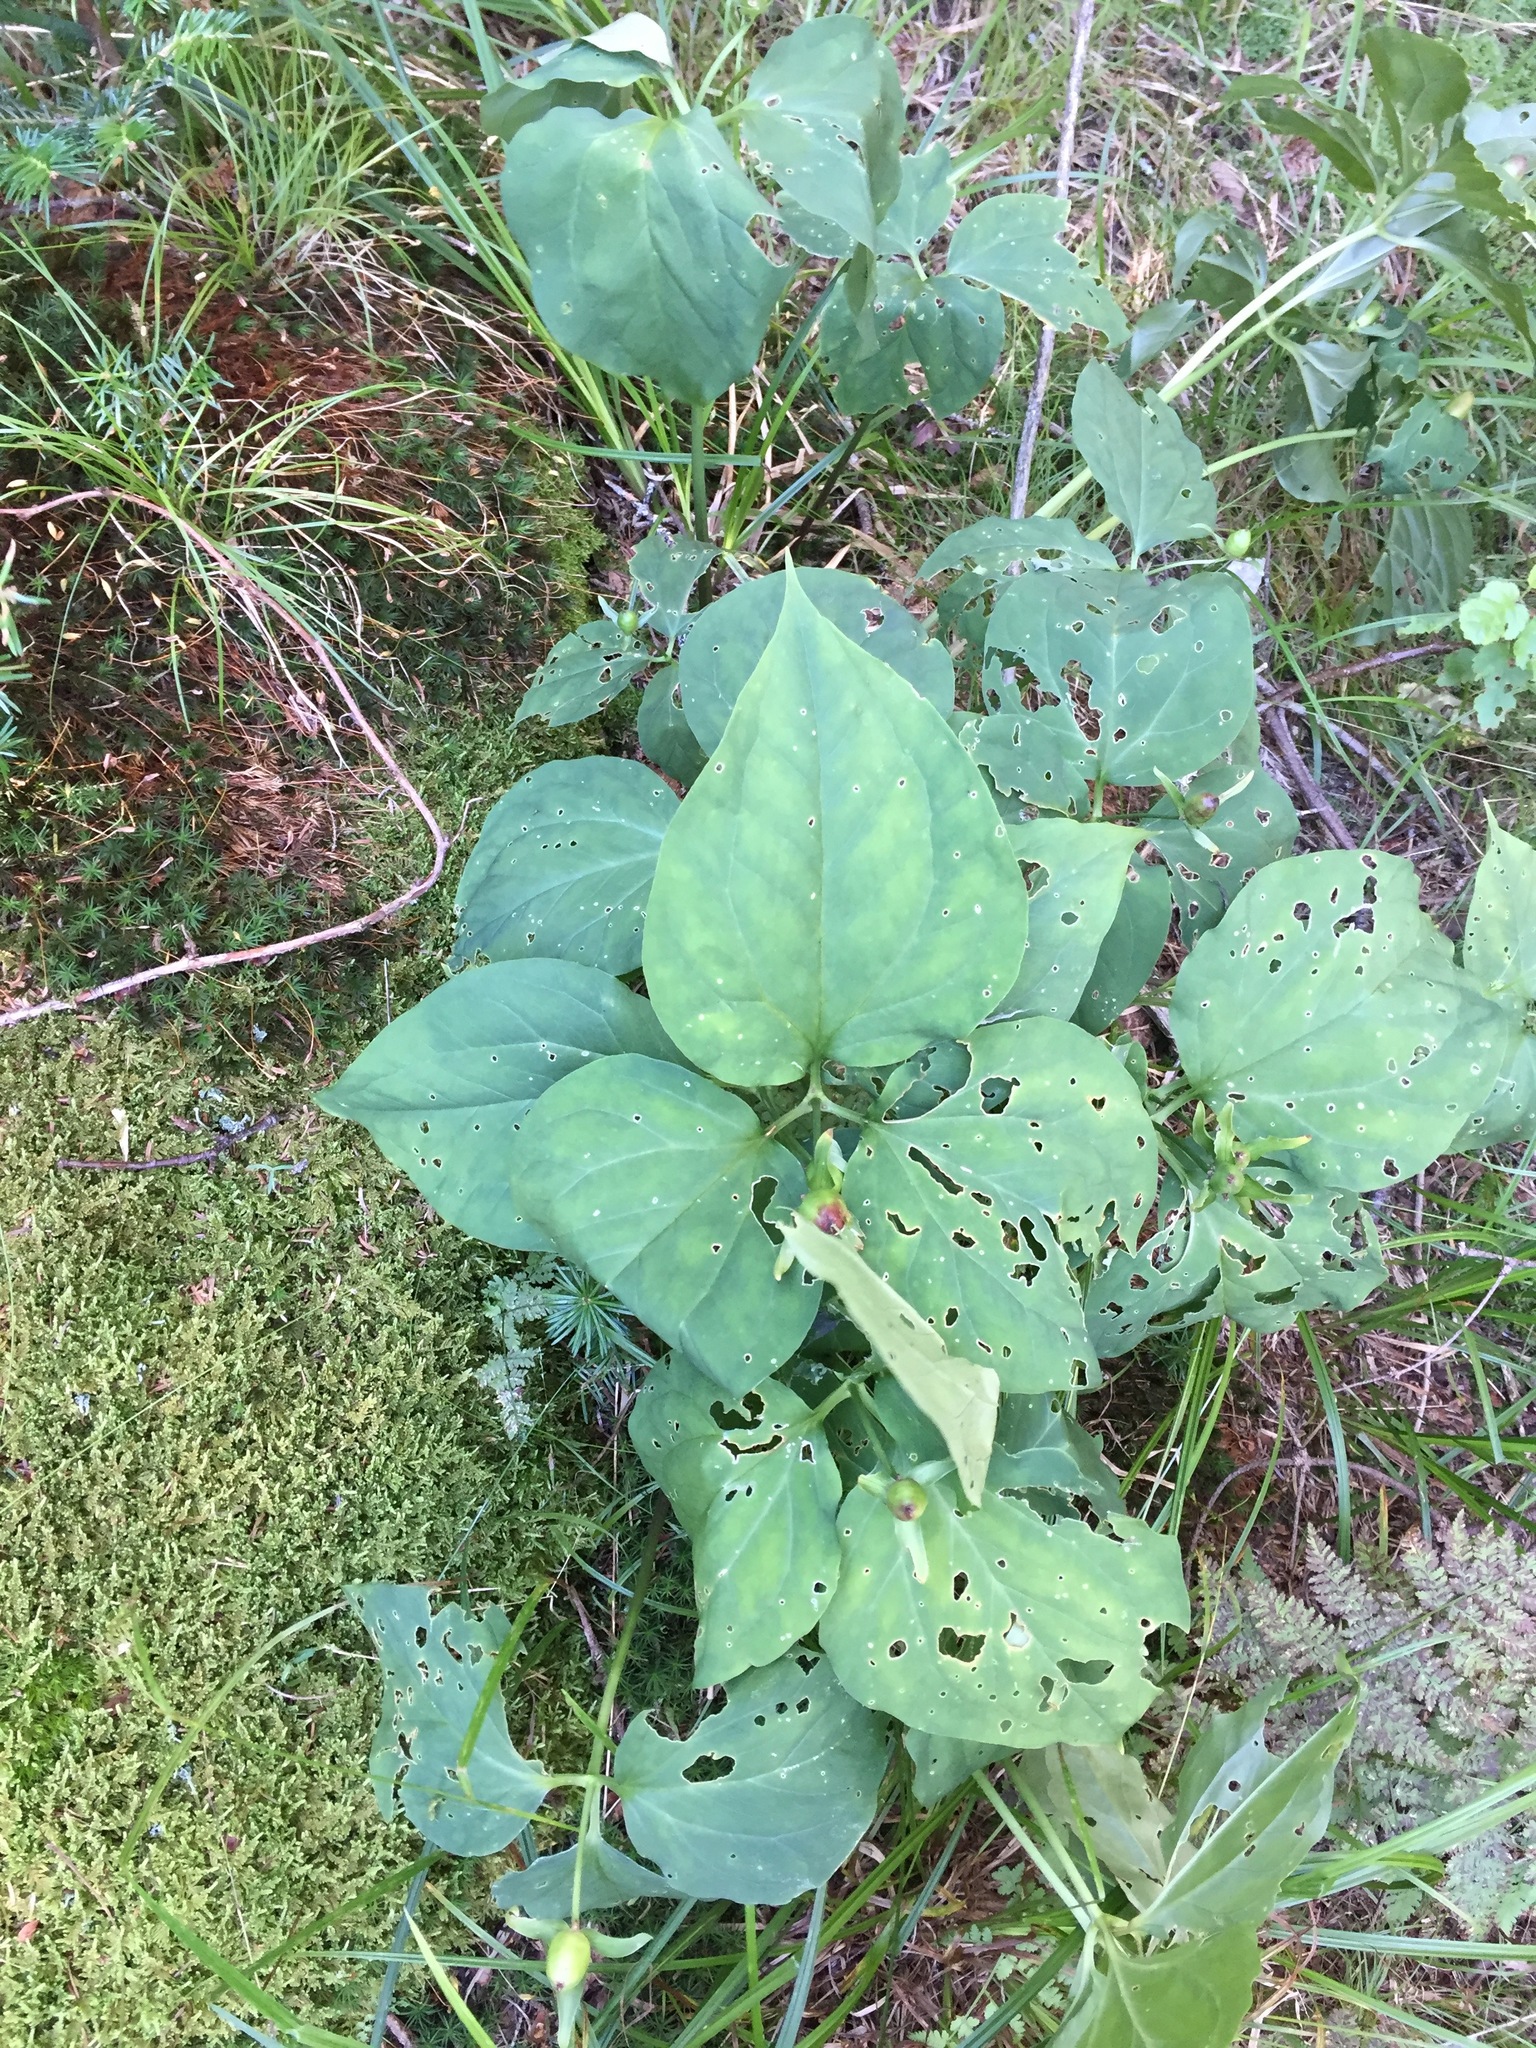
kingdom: Plantae
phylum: Tracheophyta
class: Liliopsida
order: Liliales
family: Melanthiaceae
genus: Trillium
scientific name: Trillium undulatum
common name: Paint trillium
